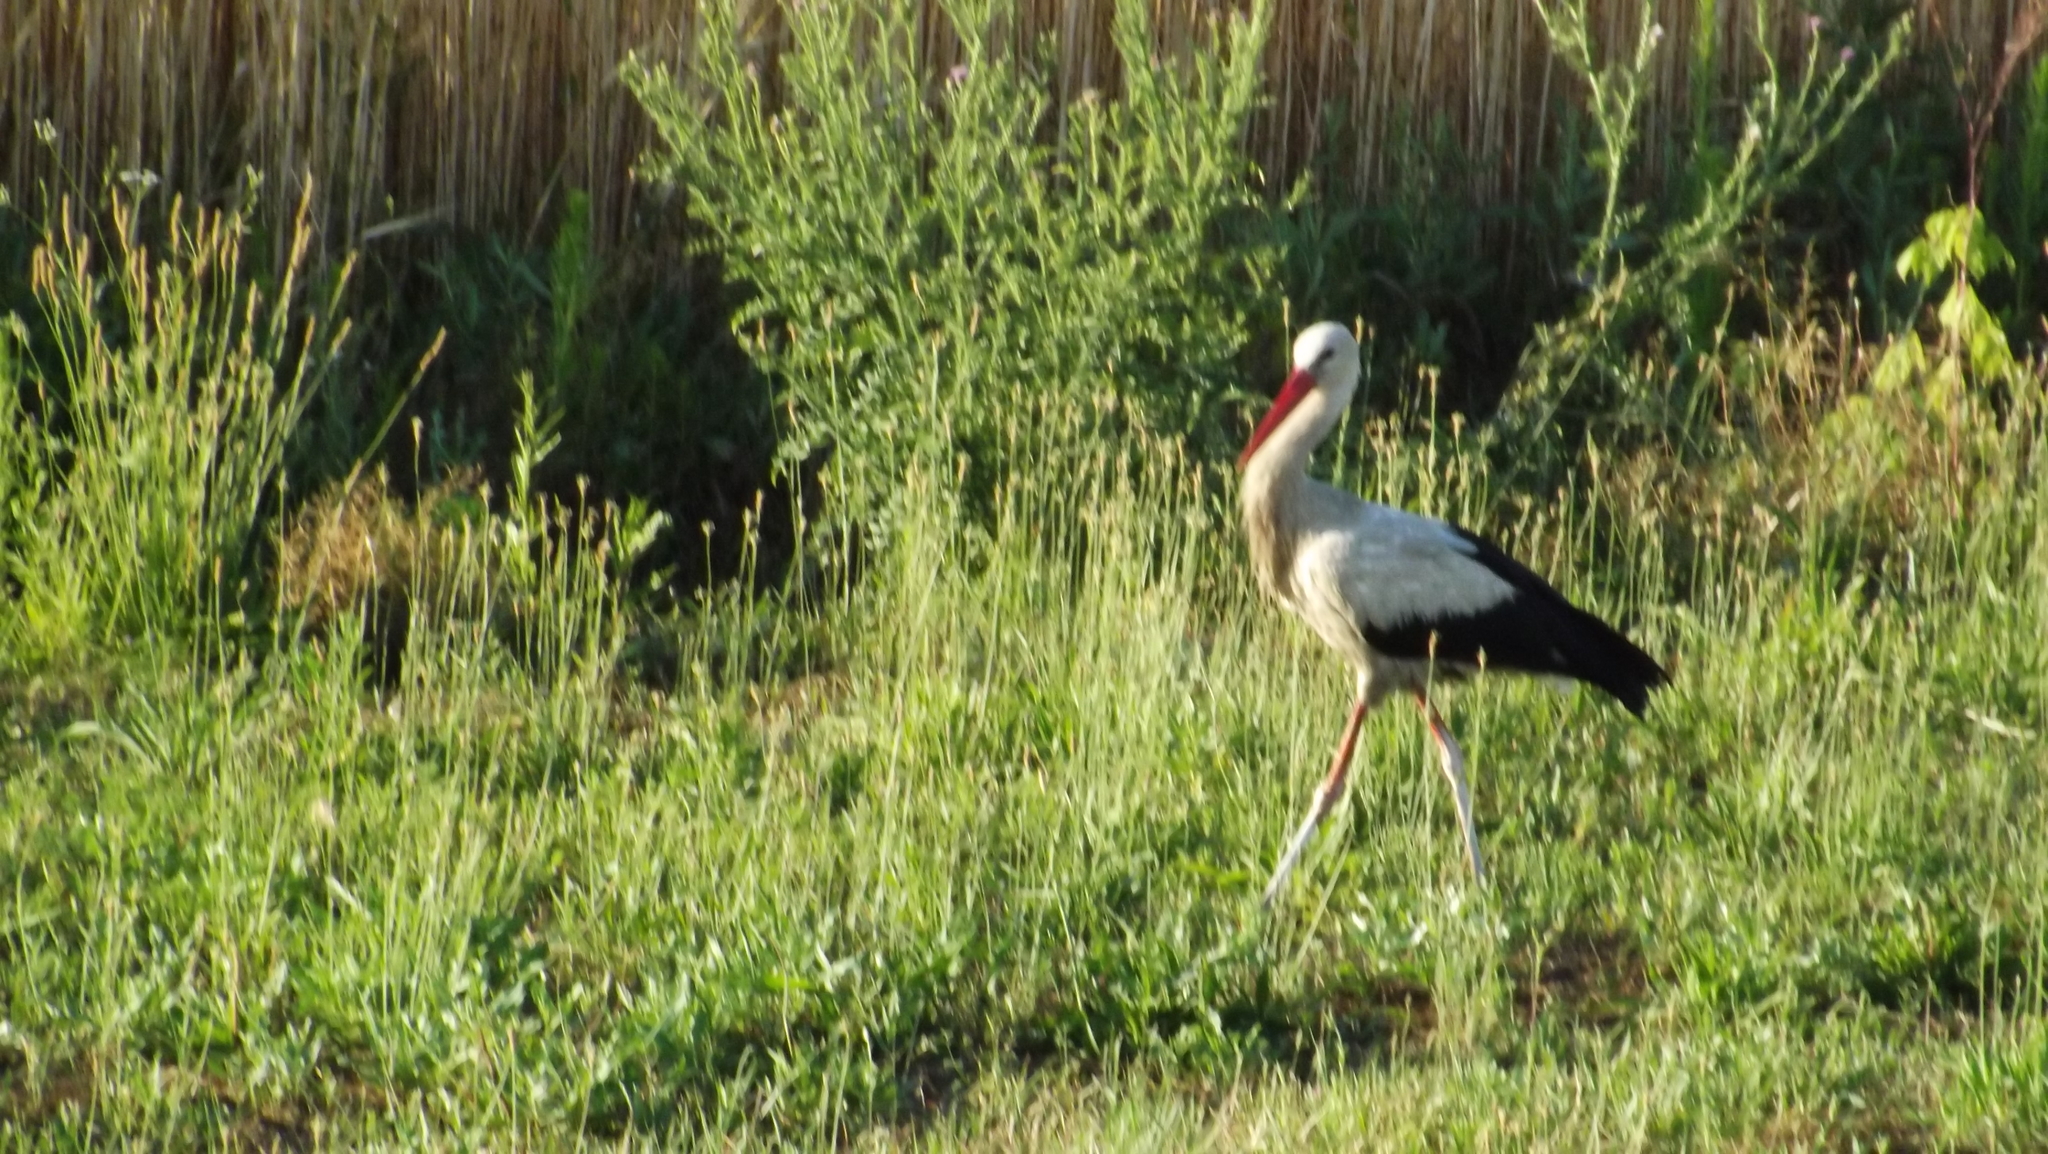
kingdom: Animalia
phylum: Chordata
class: Aves
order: Ciconiiformes
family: Ciconiidae
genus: Ciconia
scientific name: Ciconia ciconia
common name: White stork
